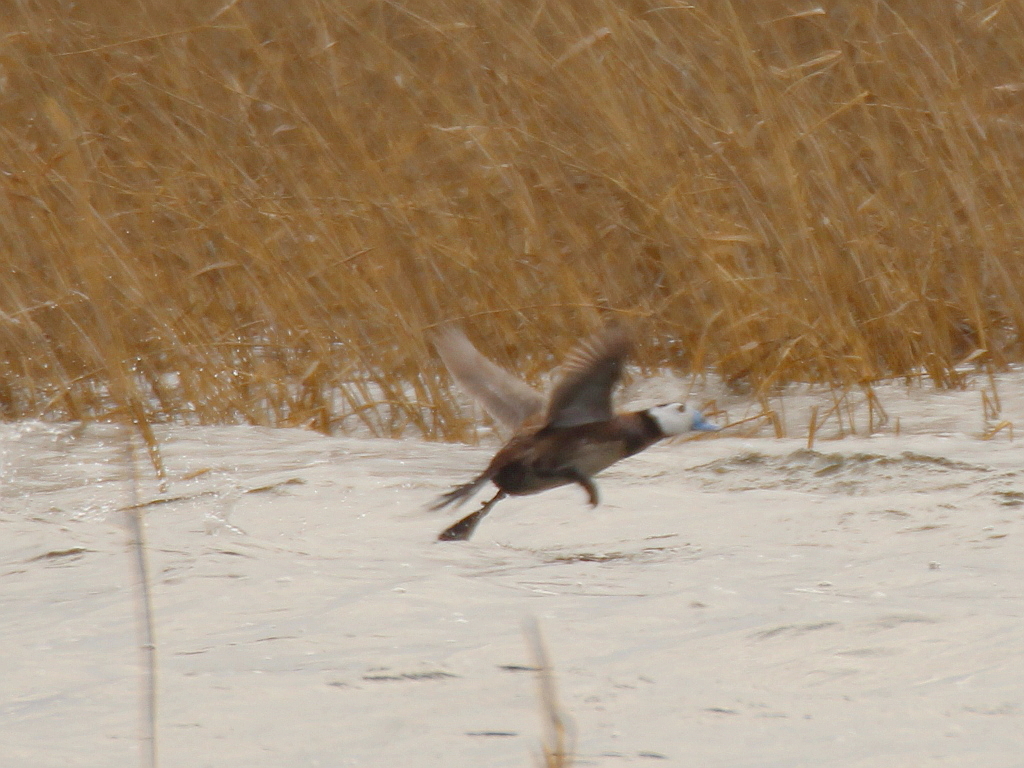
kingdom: Animalia
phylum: Chordata
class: Aves
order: Anseriformes
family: Anatidae
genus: Oxyura
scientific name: Oxyura leucocephala
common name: White-headed duck
